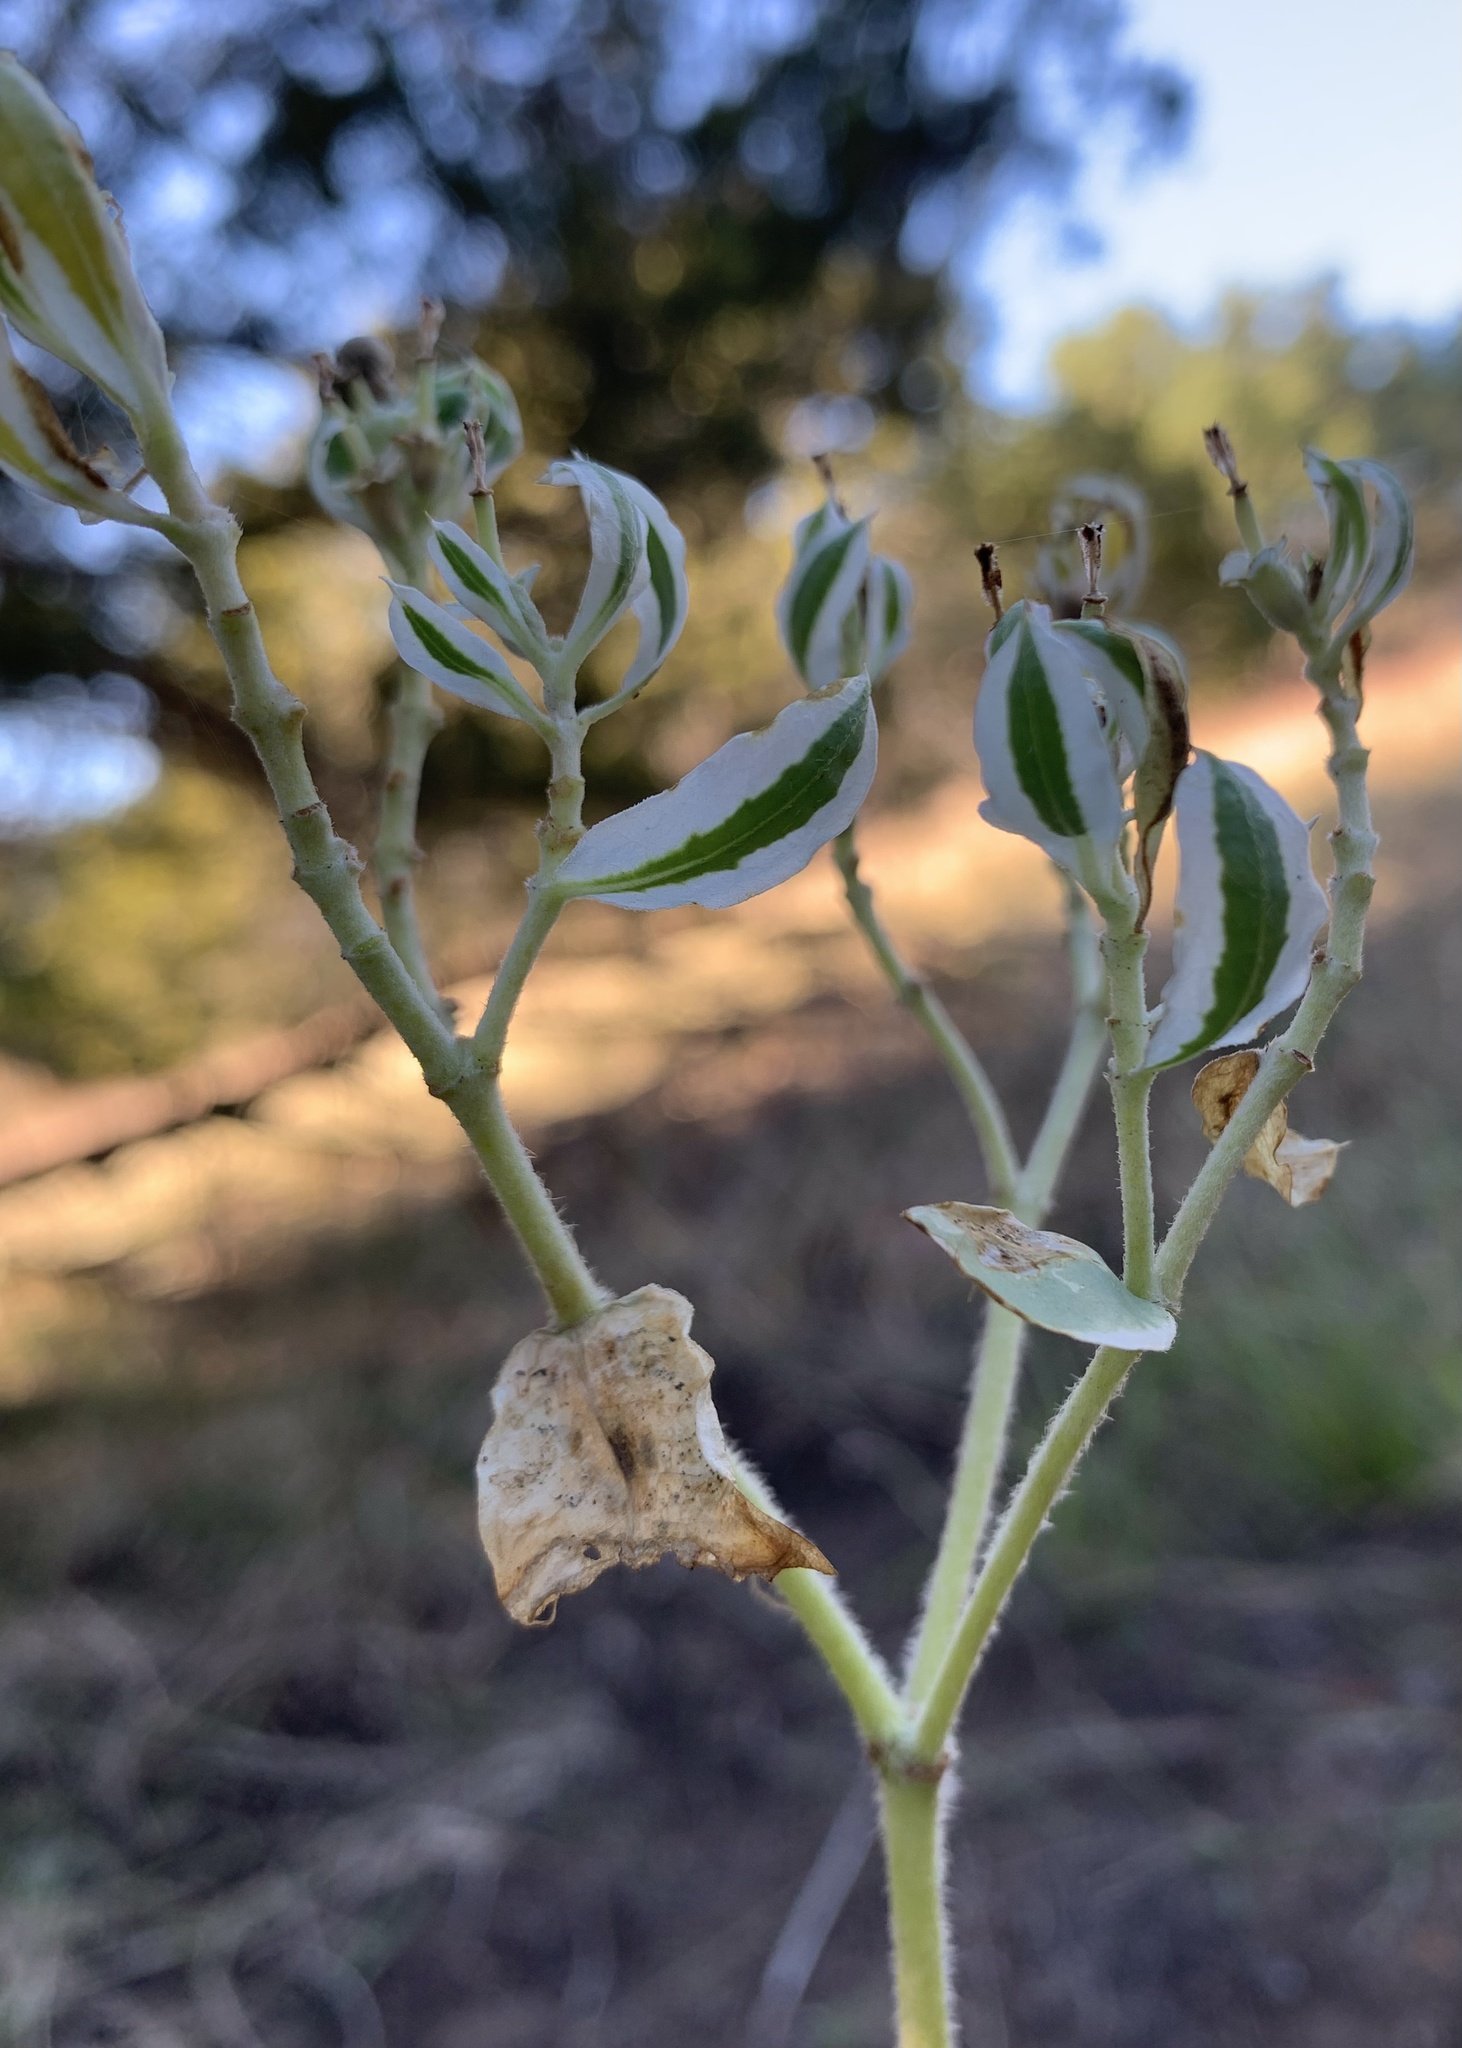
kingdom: Plantae
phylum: Tracheophyta
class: Magnoliopsida
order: Malpighiales
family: Euphorbiaceae
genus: Euphorbia
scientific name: Euphorbia marginata
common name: Ghostweed
